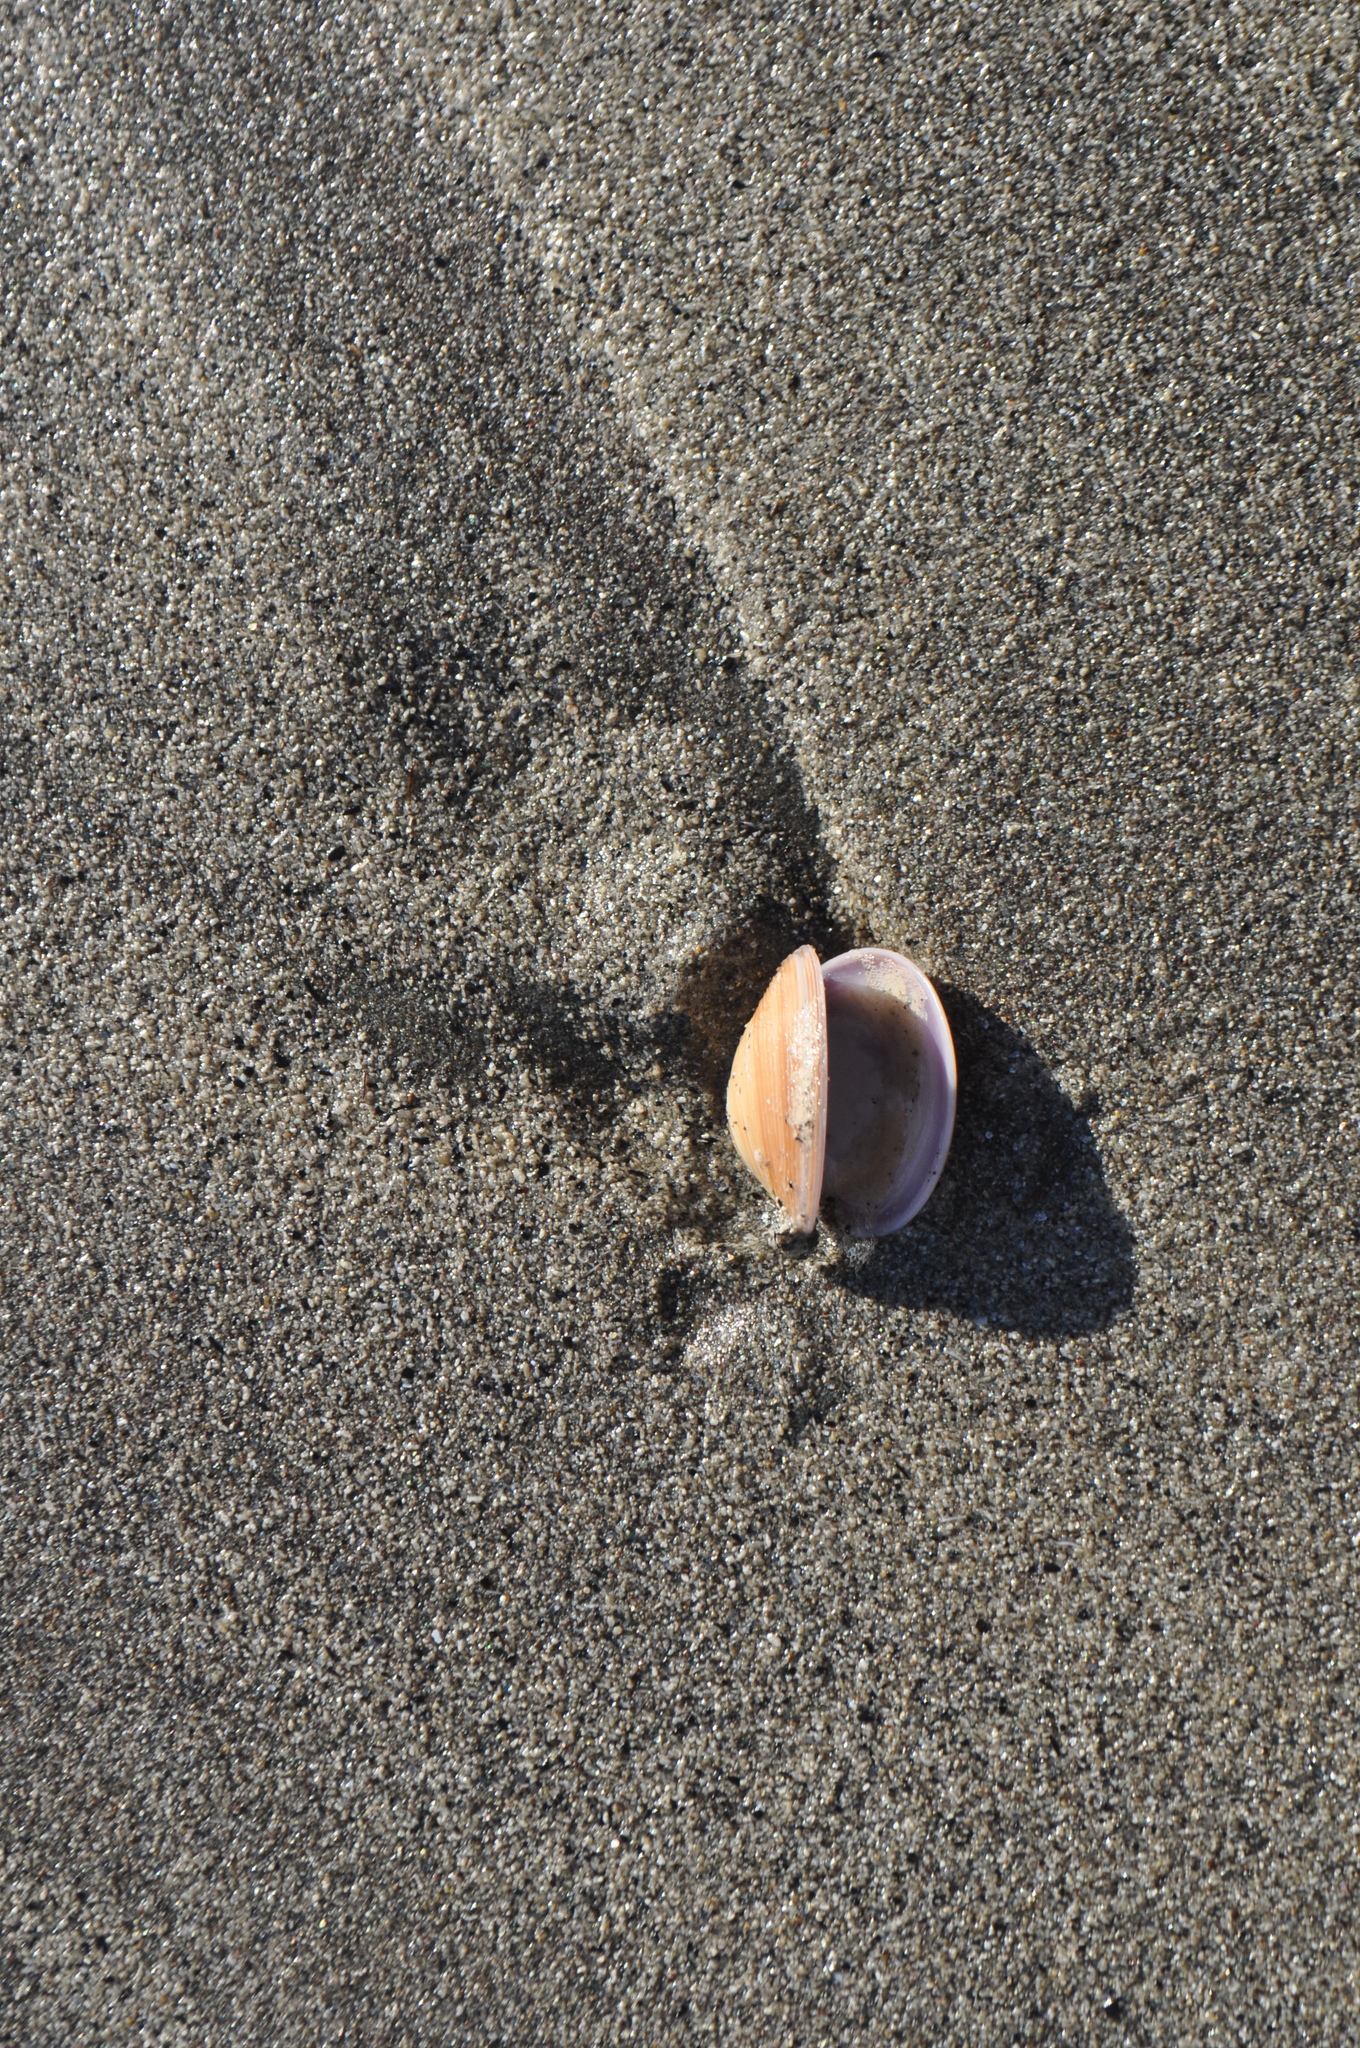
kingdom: Animalia
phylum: Mollusca
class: Bivalvia
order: Venerida
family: Veneridae
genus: Dosinia
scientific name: Dosinia anus
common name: Old-woman dosinia
